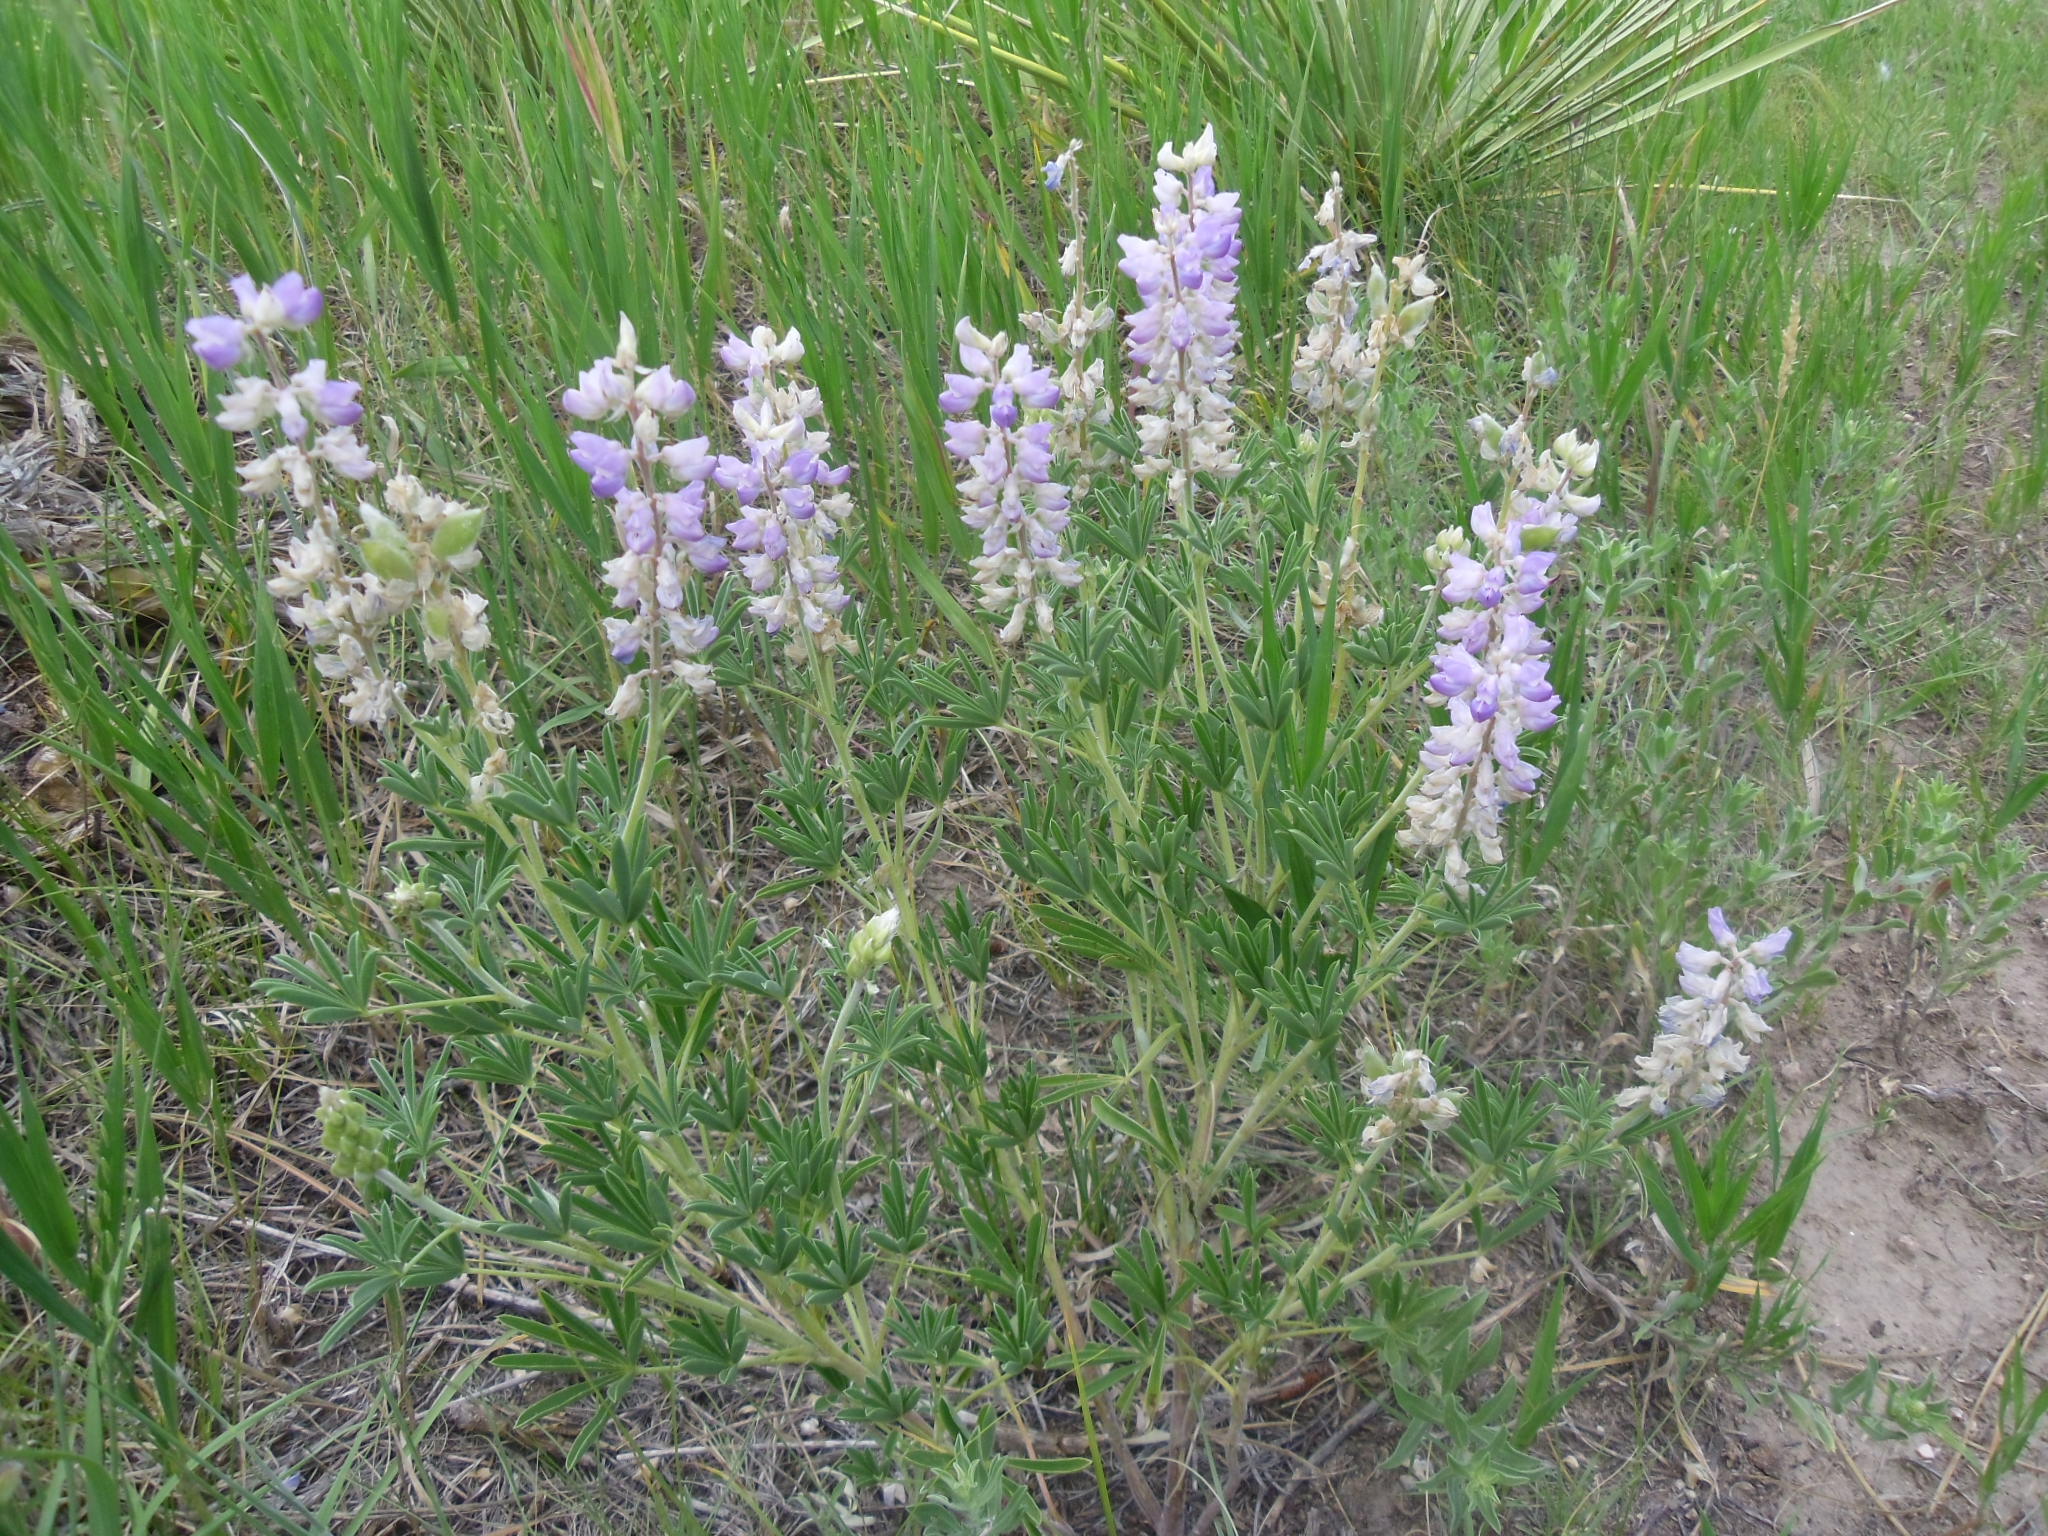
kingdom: Plantae
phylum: Tracheophyta
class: Magnoliopsida
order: Fabales
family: Fabaceae
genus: Lupinus
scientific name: Lupinus argenteus
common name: Silvery lupine
